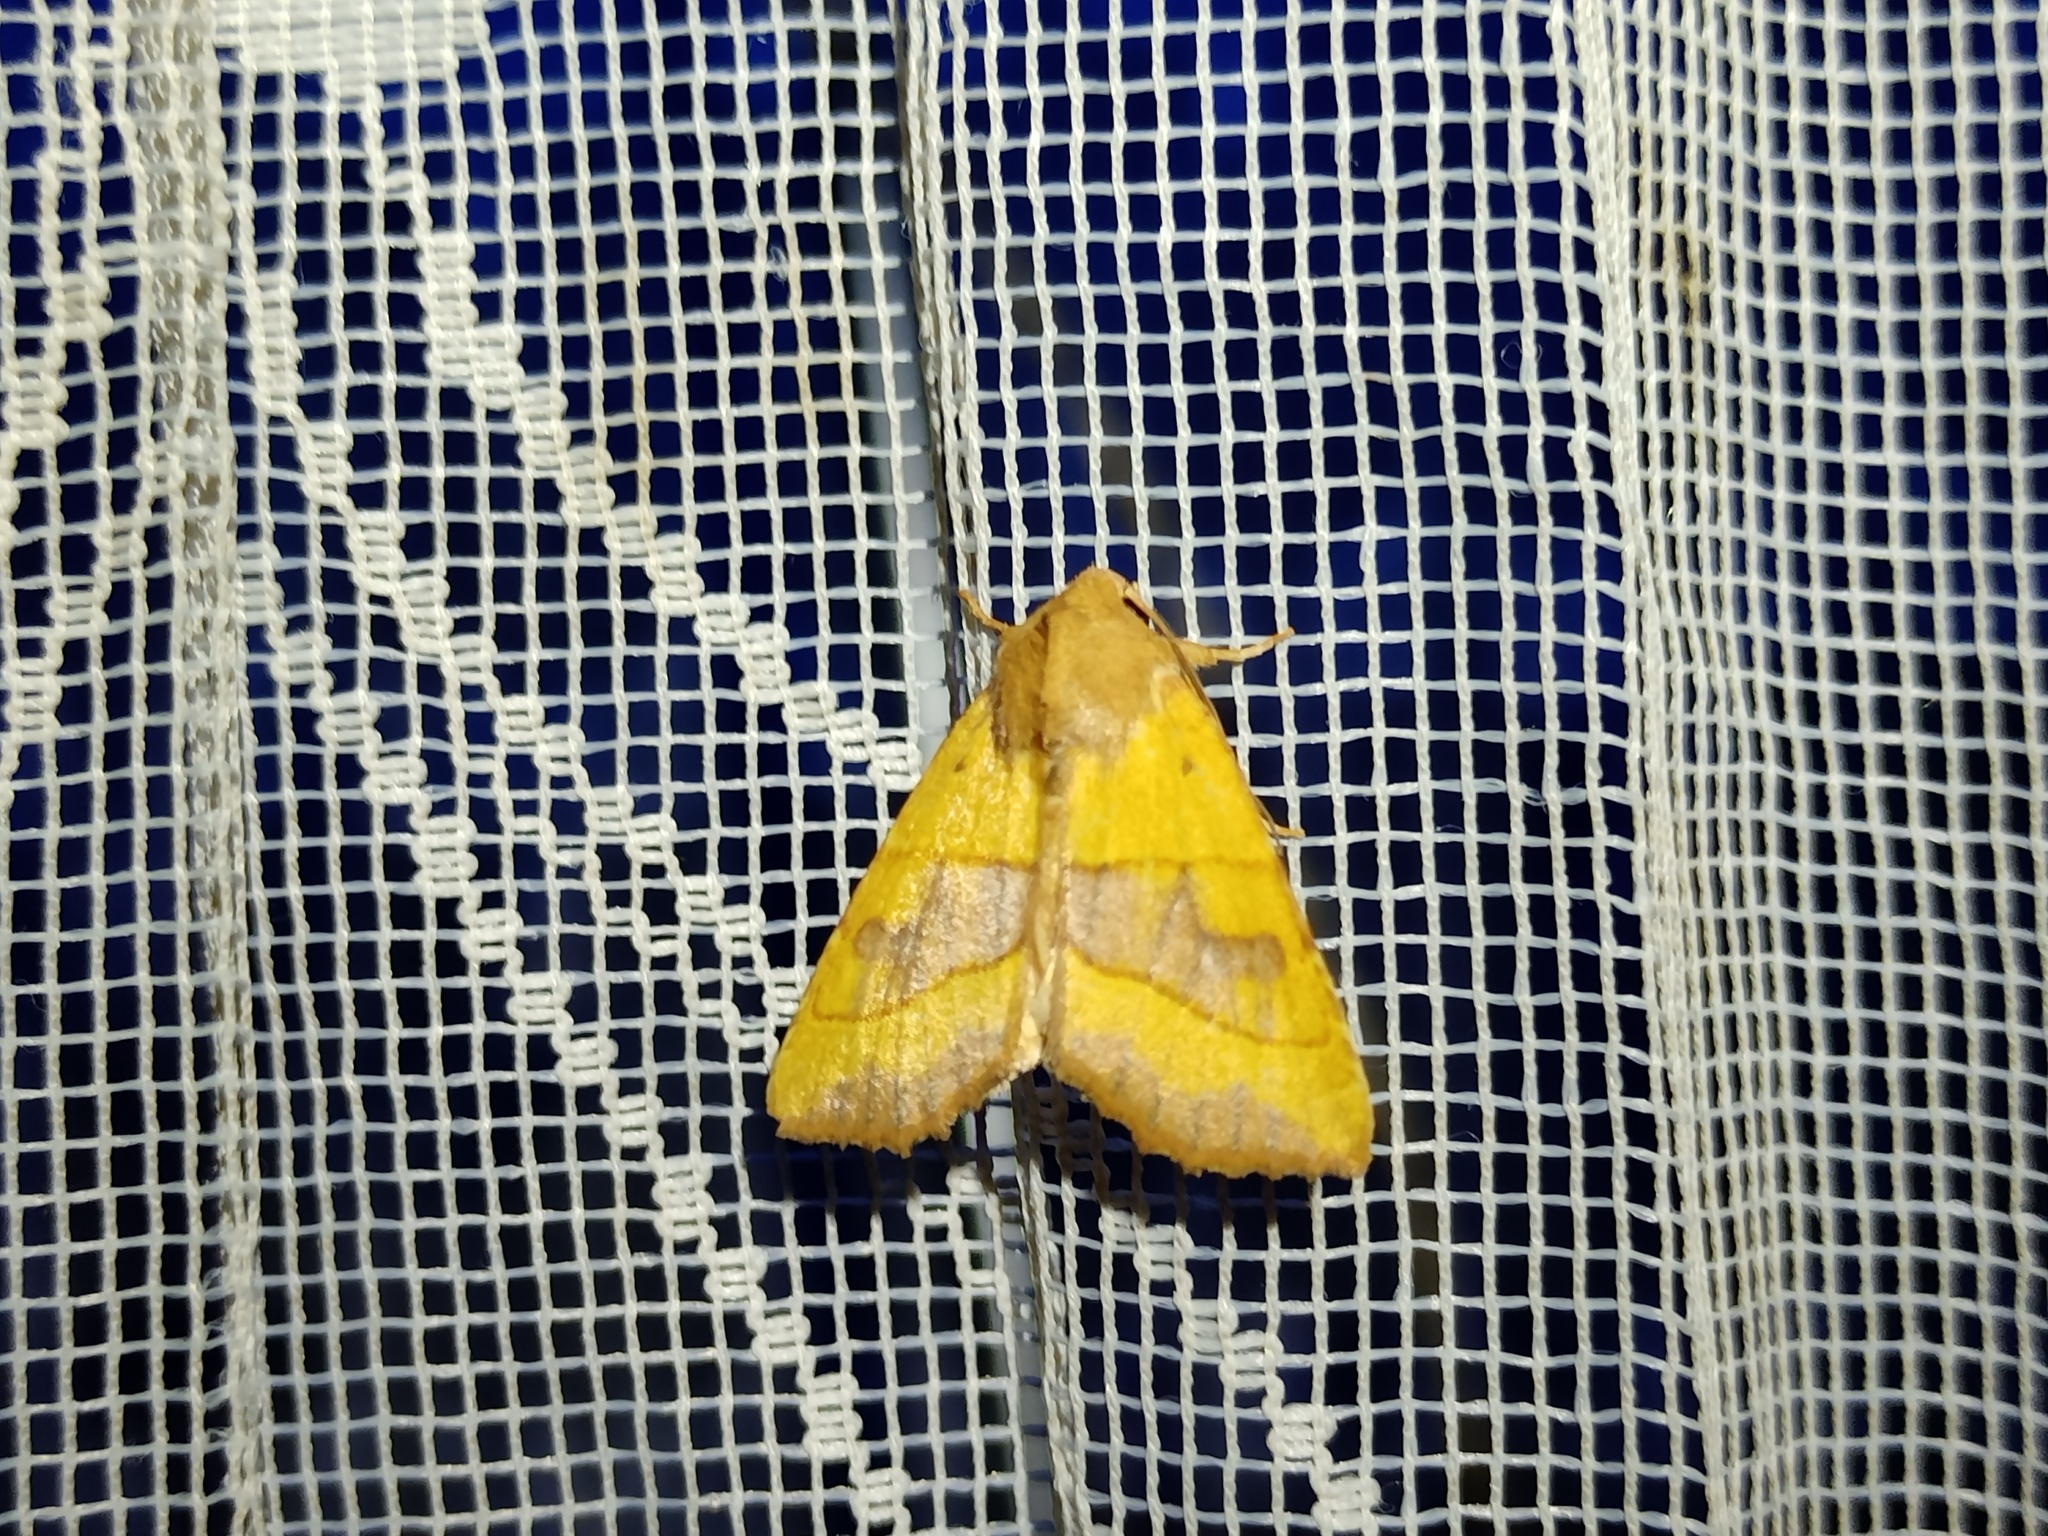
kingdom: Animalia
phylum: Arthropoda
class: Insecta
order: Lepidoptera
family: Noctuidae
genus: Atethmia
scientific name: Atethmia centrago
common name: Centre-barred sallow
